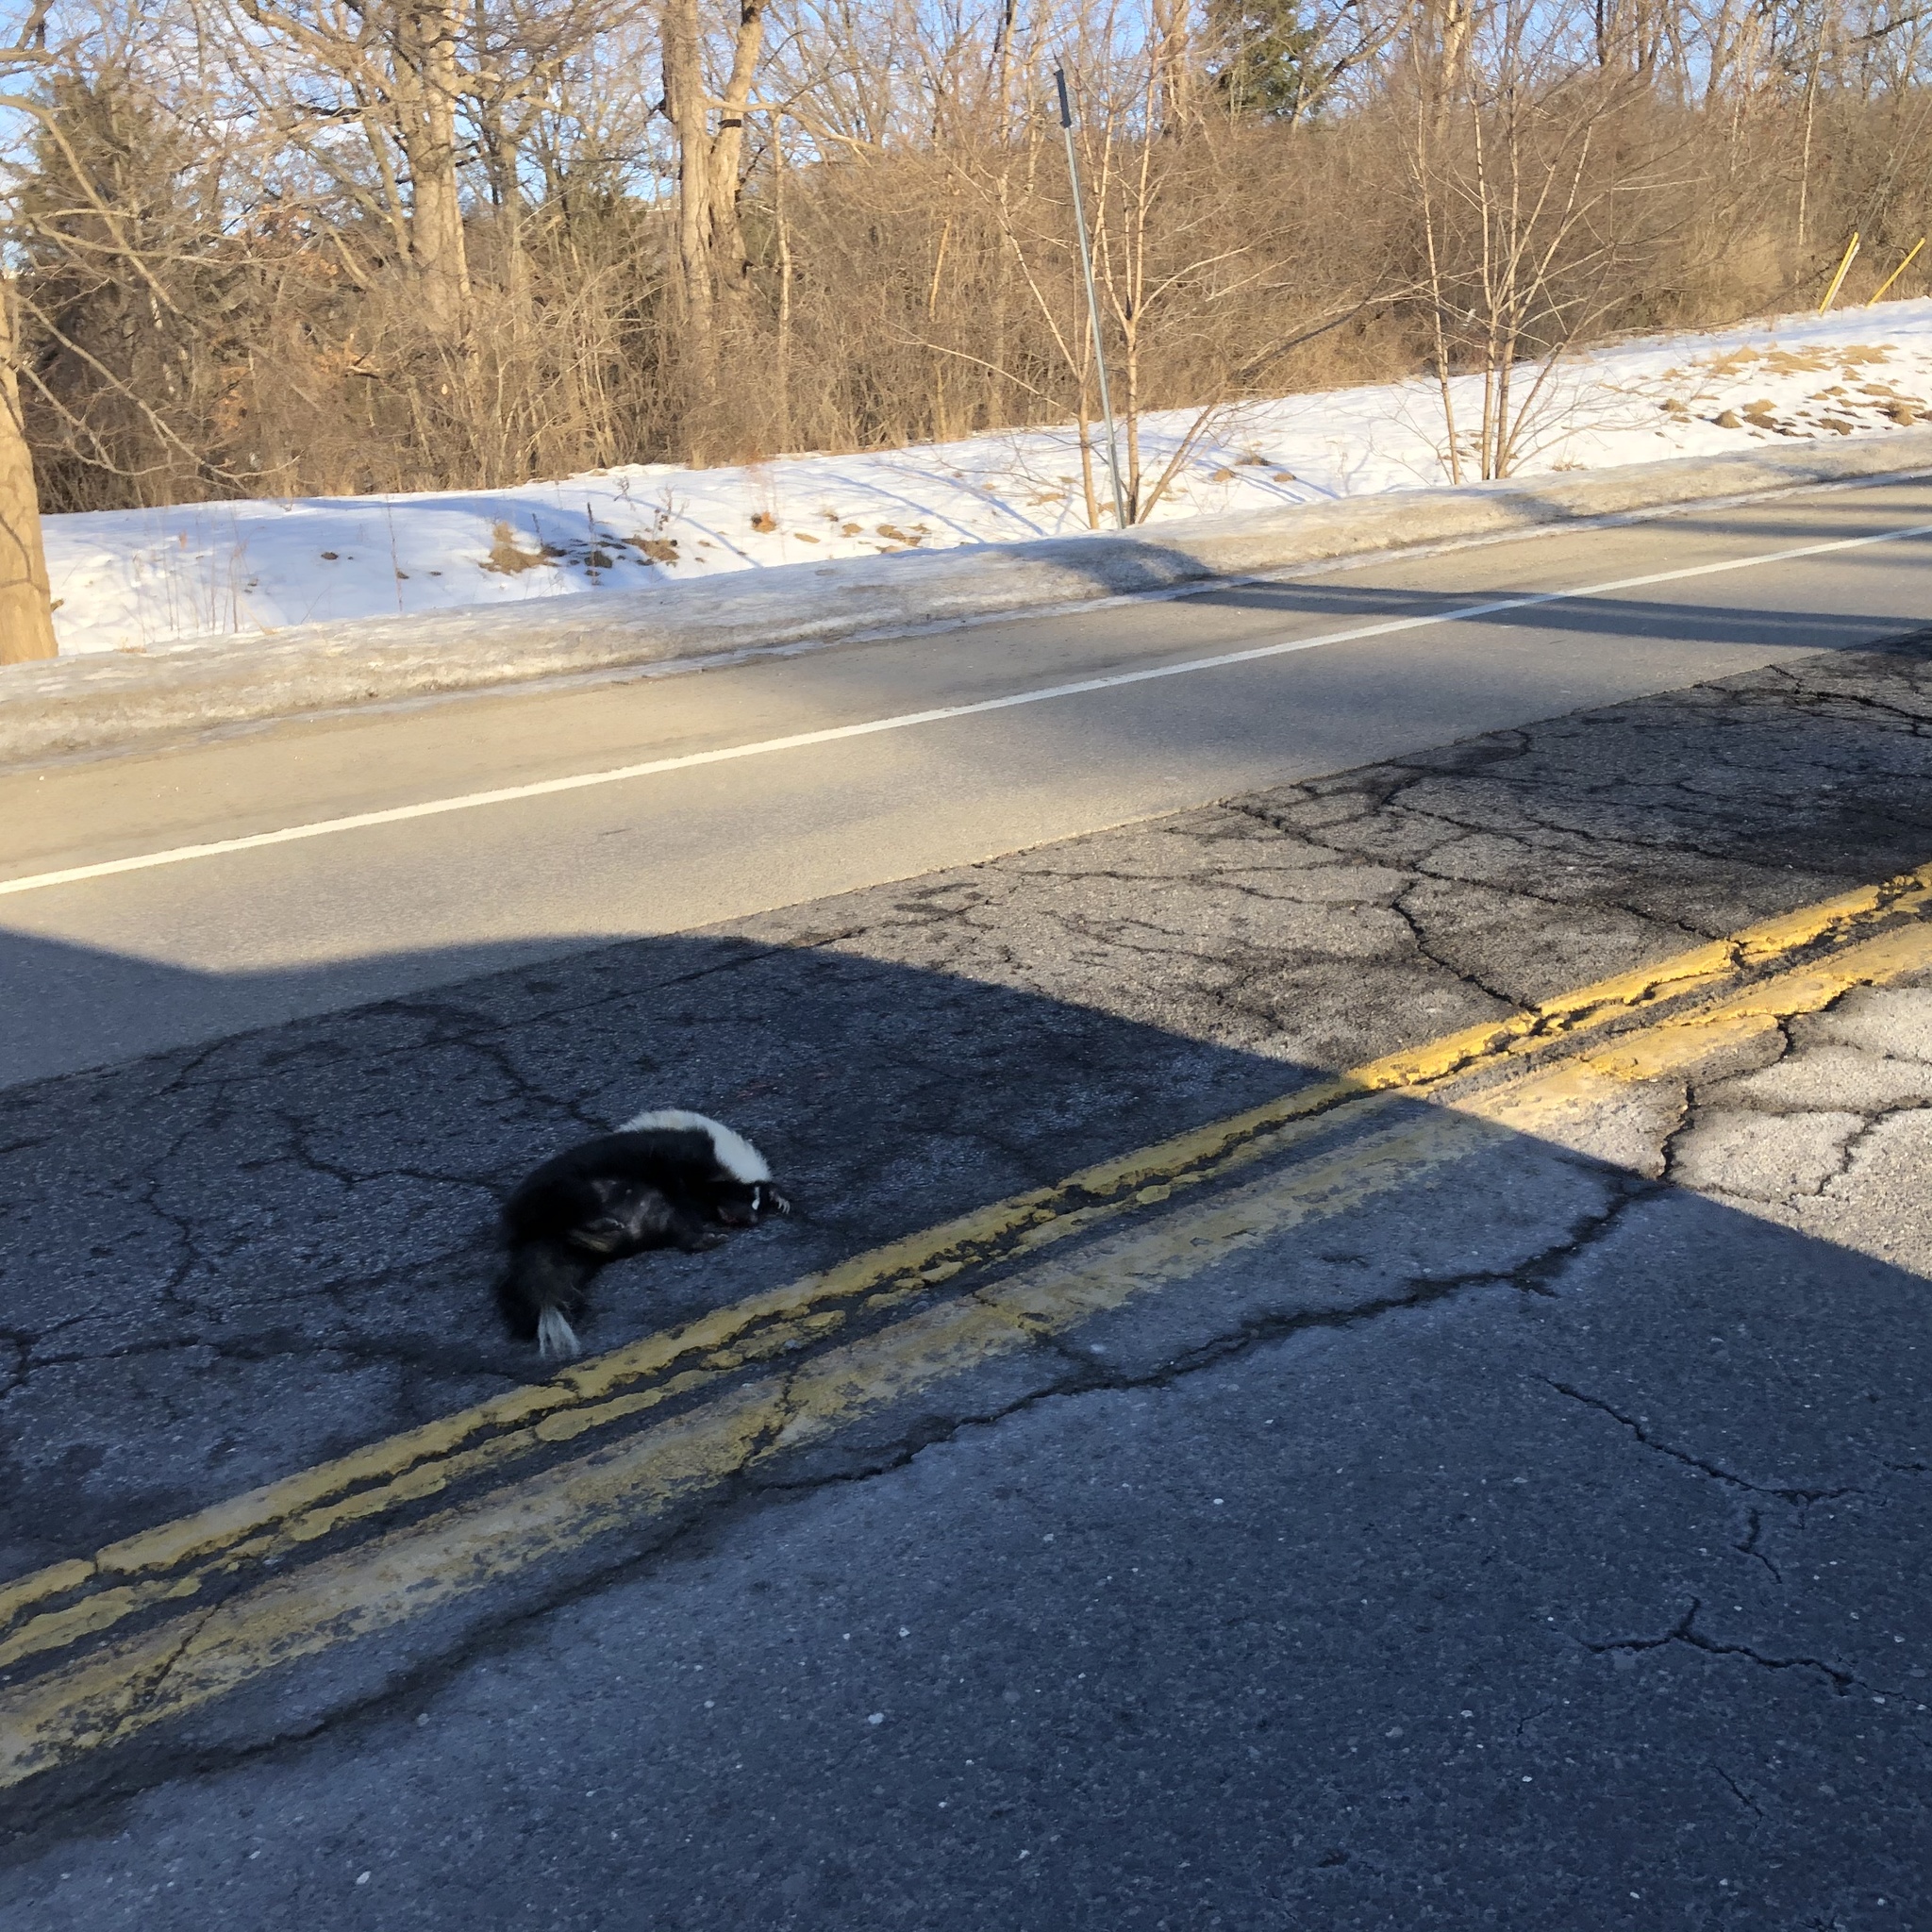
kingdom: Animalia
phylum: Chordata
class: Mammalia
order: Carnivora
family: Mephitidae
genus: Mephitis
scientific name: Mephitis mephitis
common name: Striped skunk
